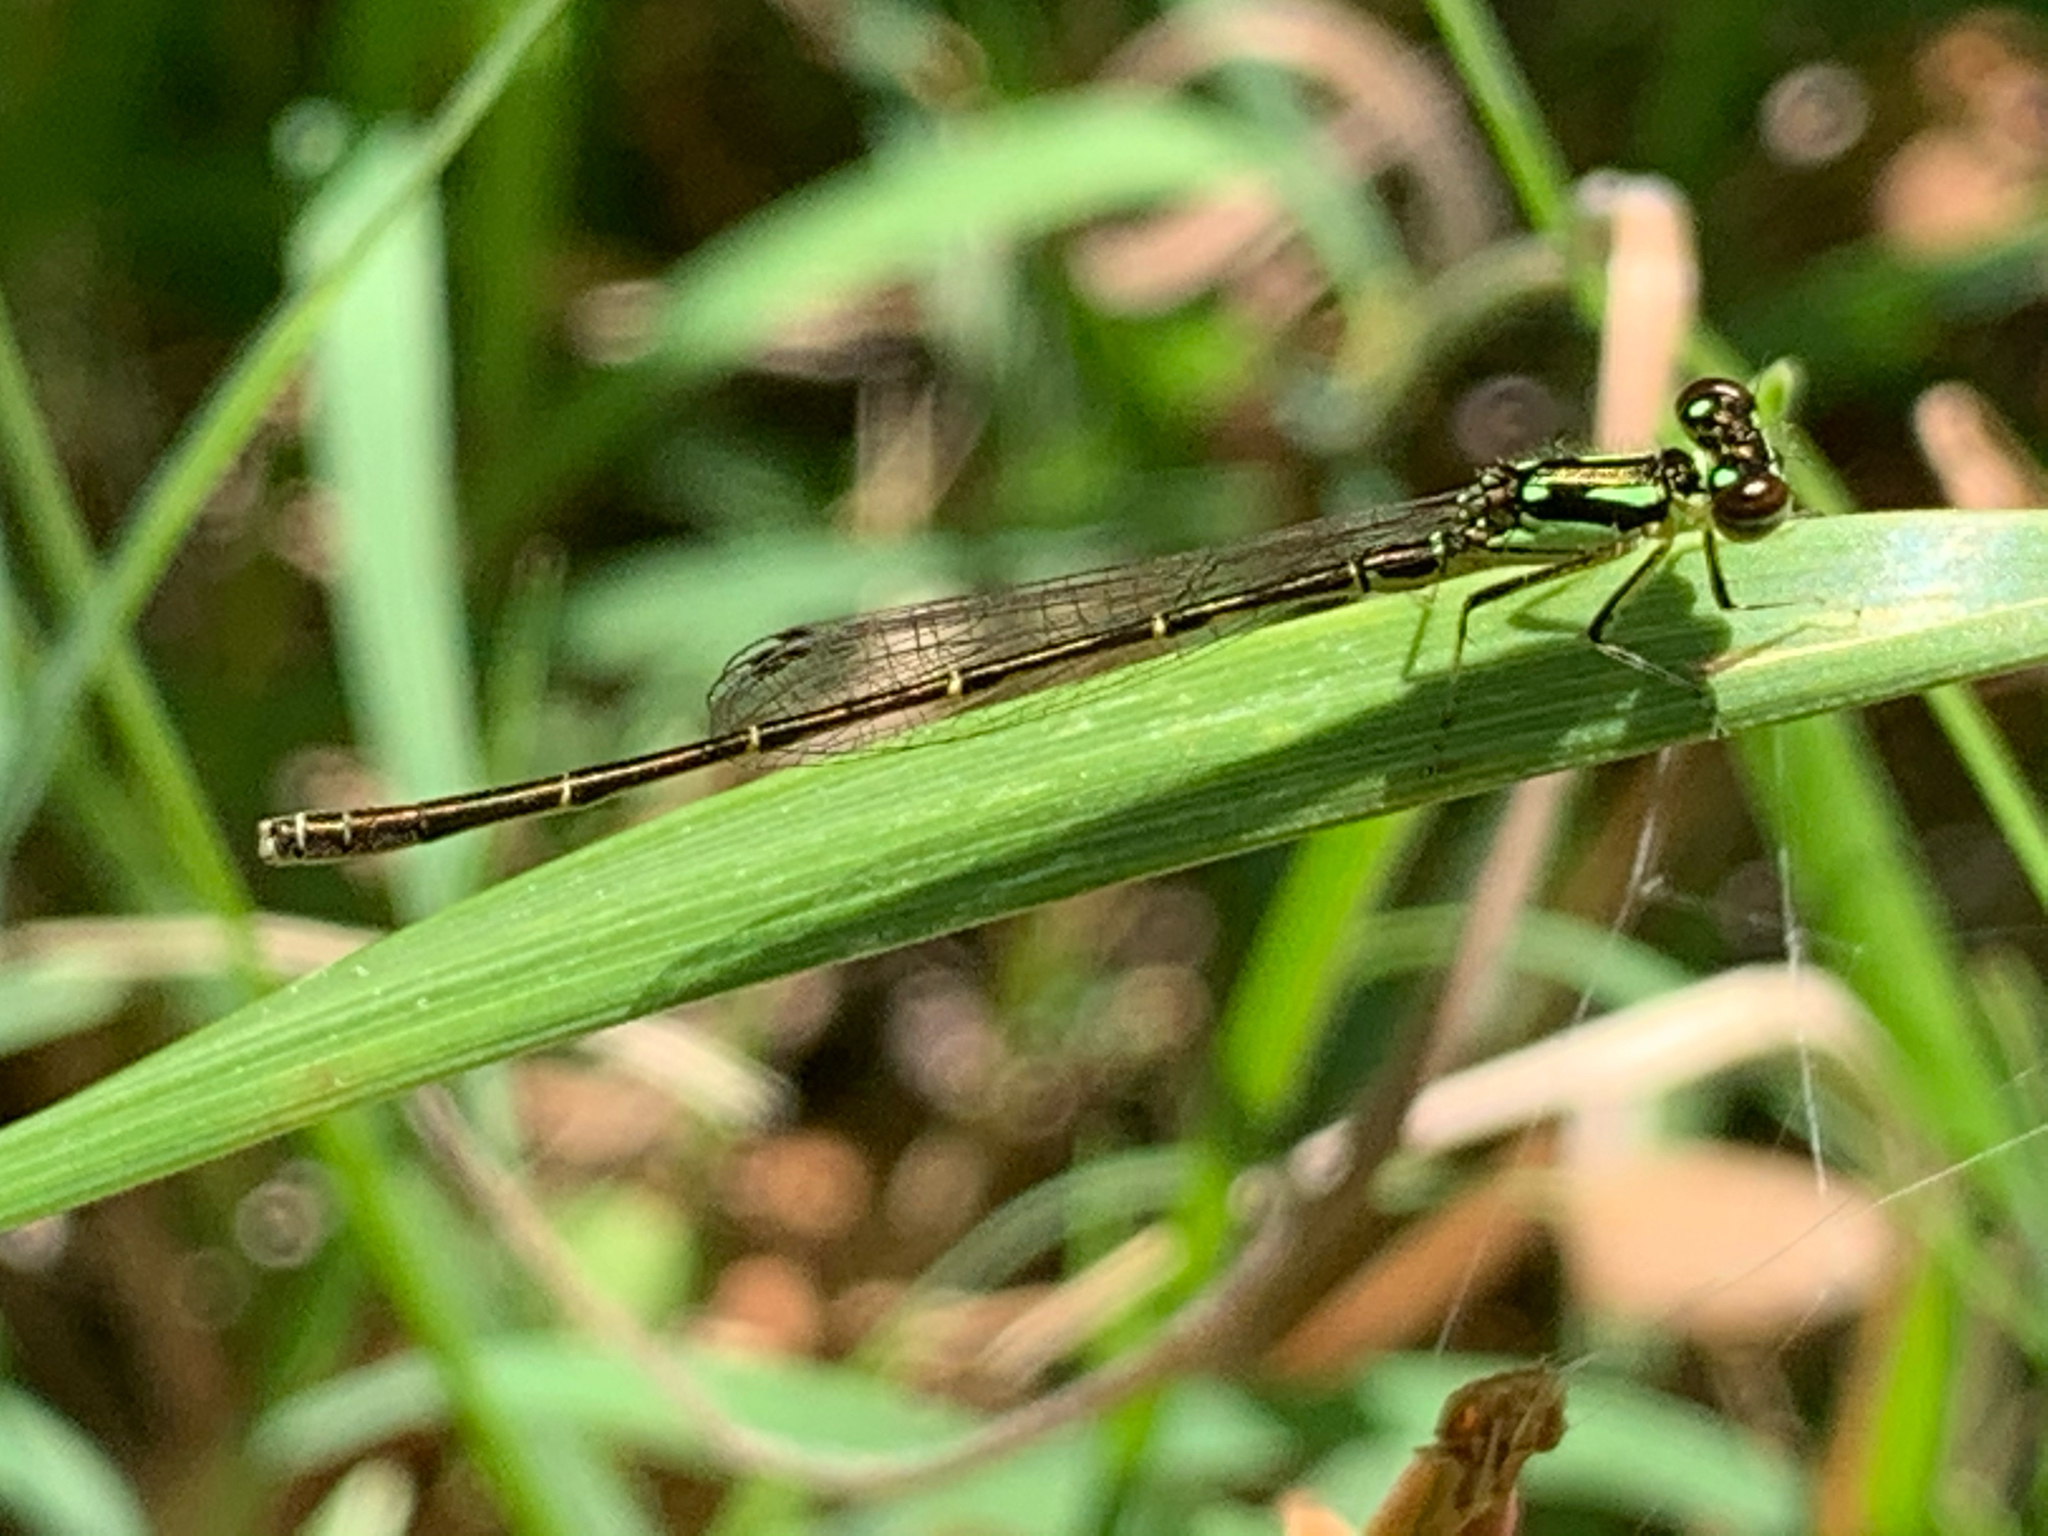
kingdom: Animalia
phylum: Arthropoda
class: Insecta
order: Odonata
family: Coenagrionidae
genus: Ischnura
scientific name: Ischnura posita
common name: Fragile forktail
